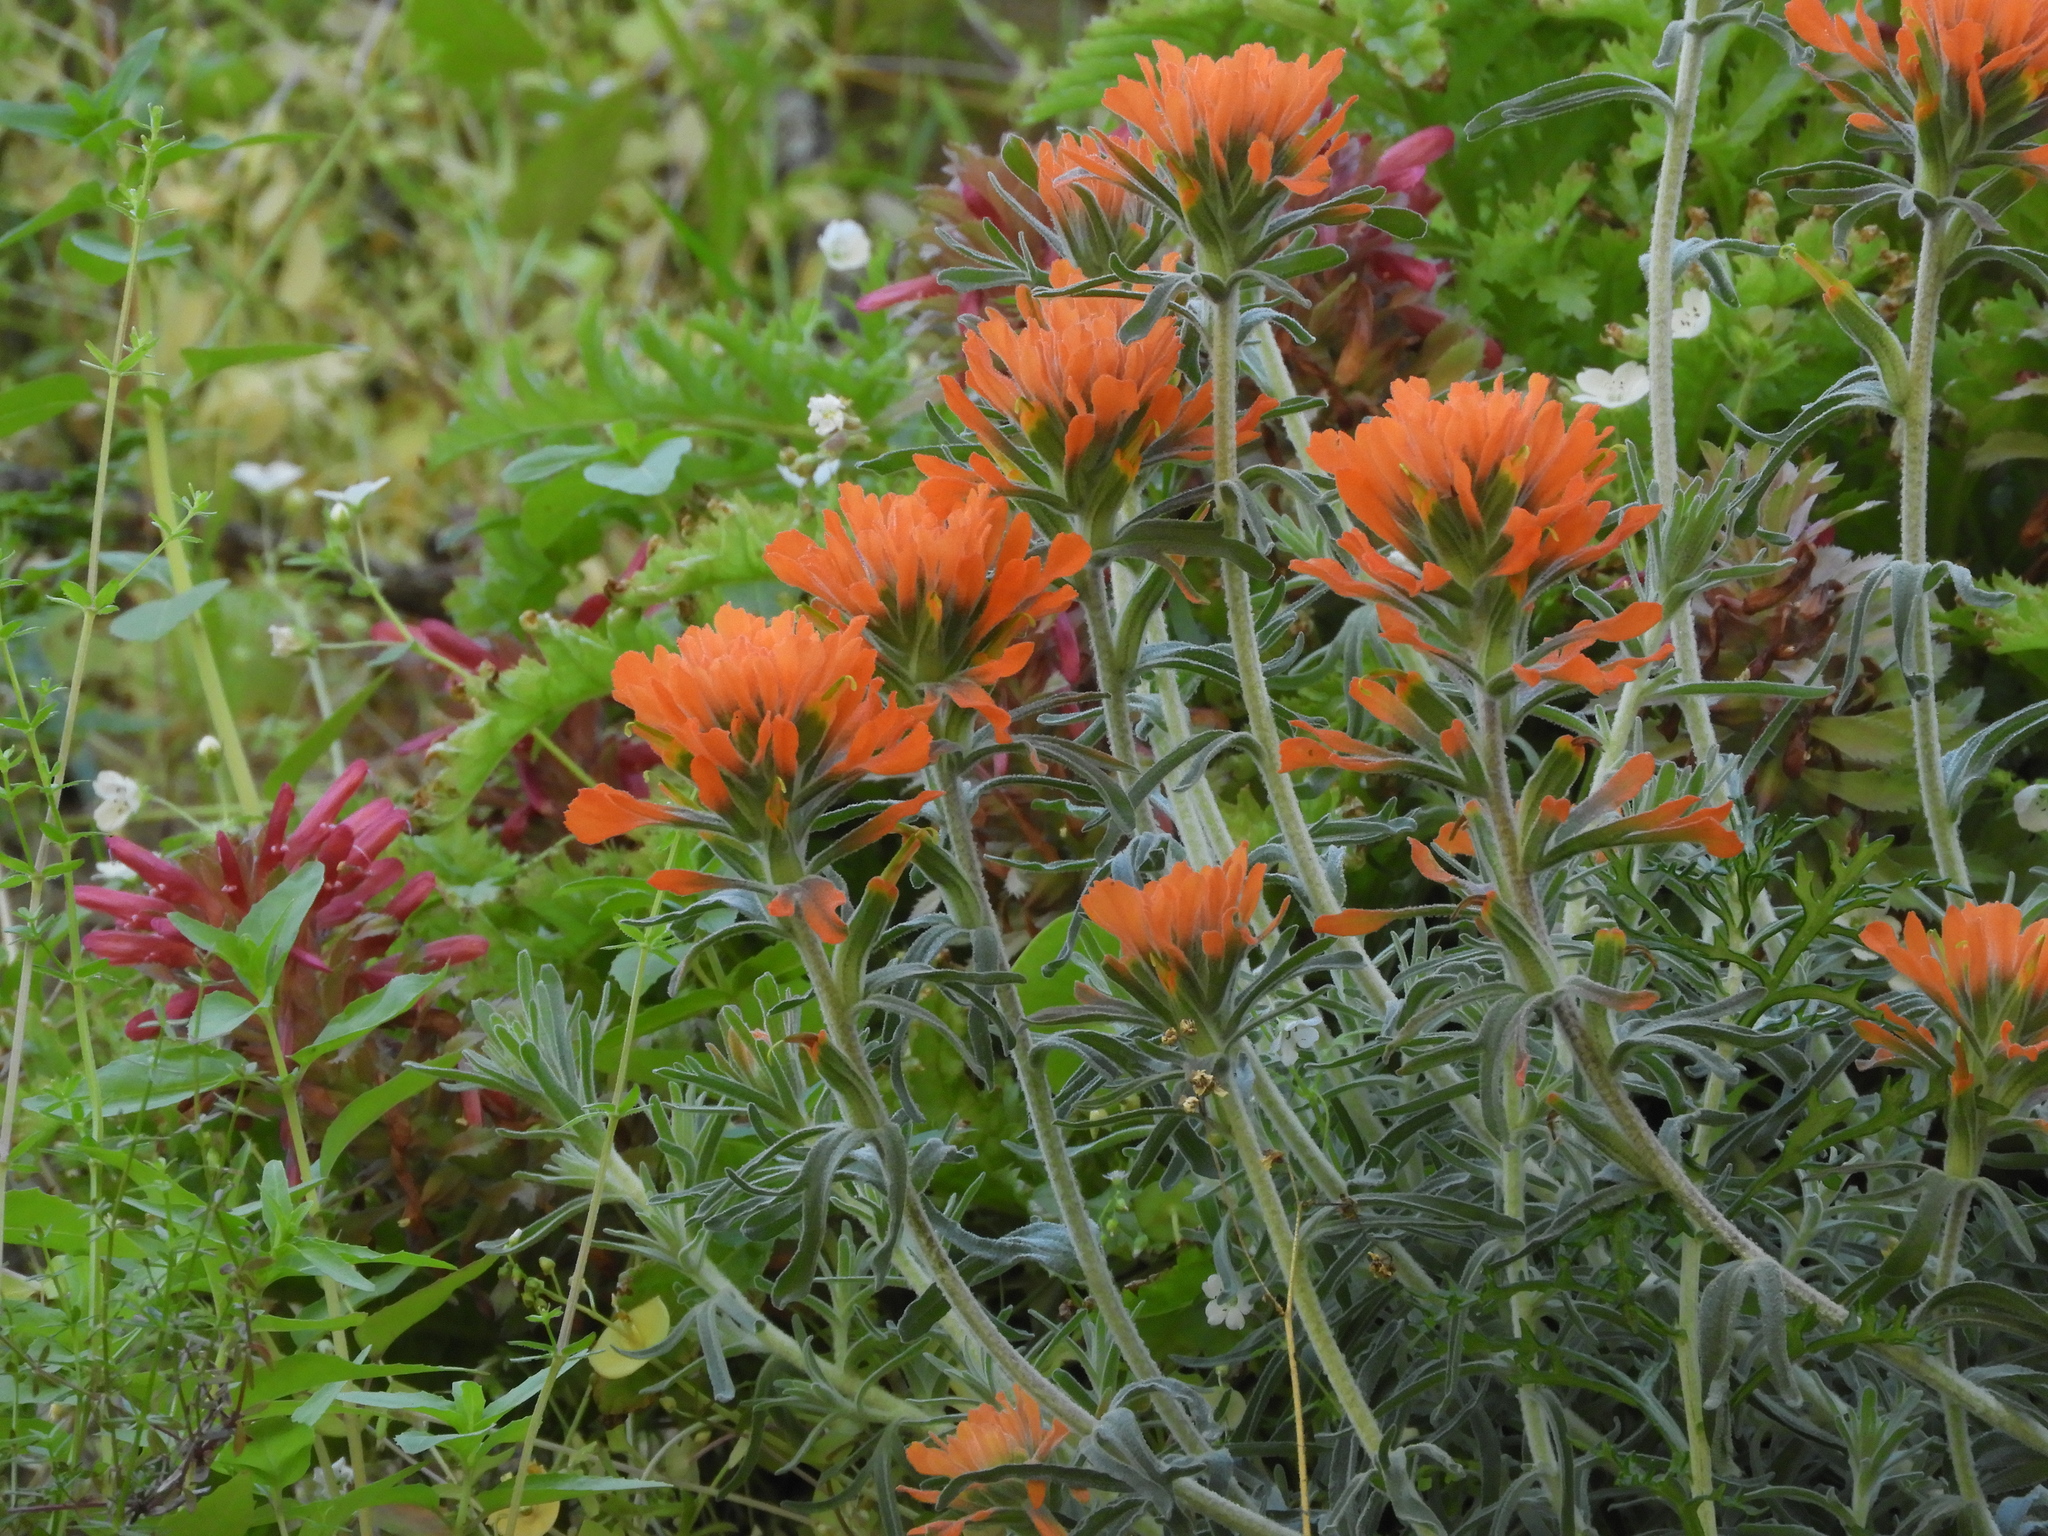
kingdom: Plantae
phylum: Tracheophyta
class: Magnoliopsida
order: Lamiales
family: Orobanchaceae
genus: Castilleja
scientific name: Castilleja foliolosa
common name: Woolly indian paintbrush
